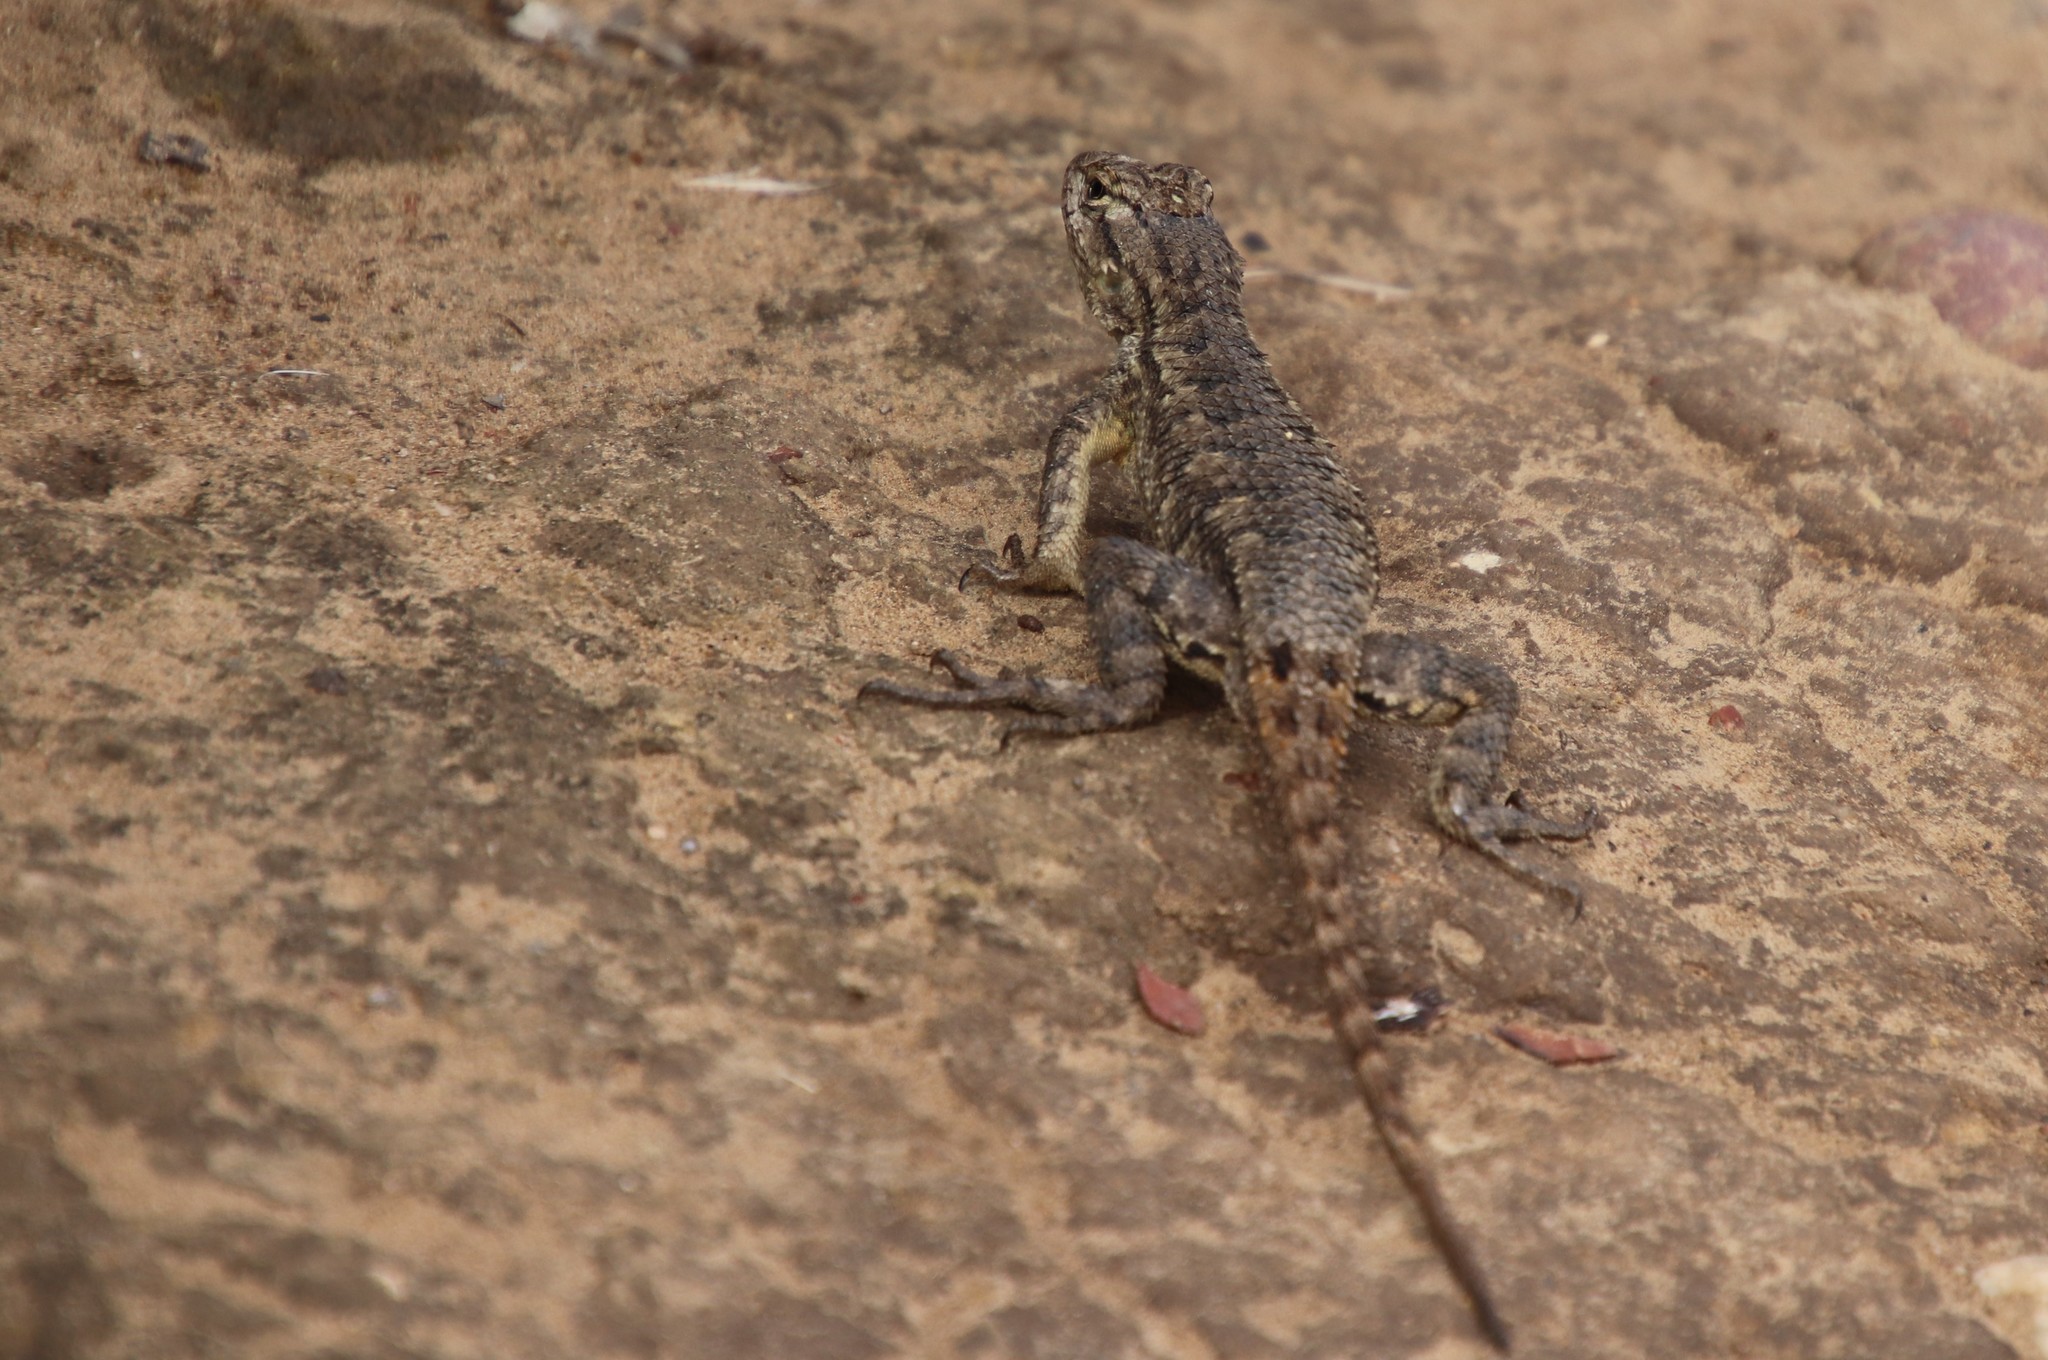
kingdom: Animalia
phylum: Chordata
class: Squamata
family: Phrynosomatidae
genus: Sceloporus
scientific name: Sceloporus occidentalis
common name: Western fence lizard
